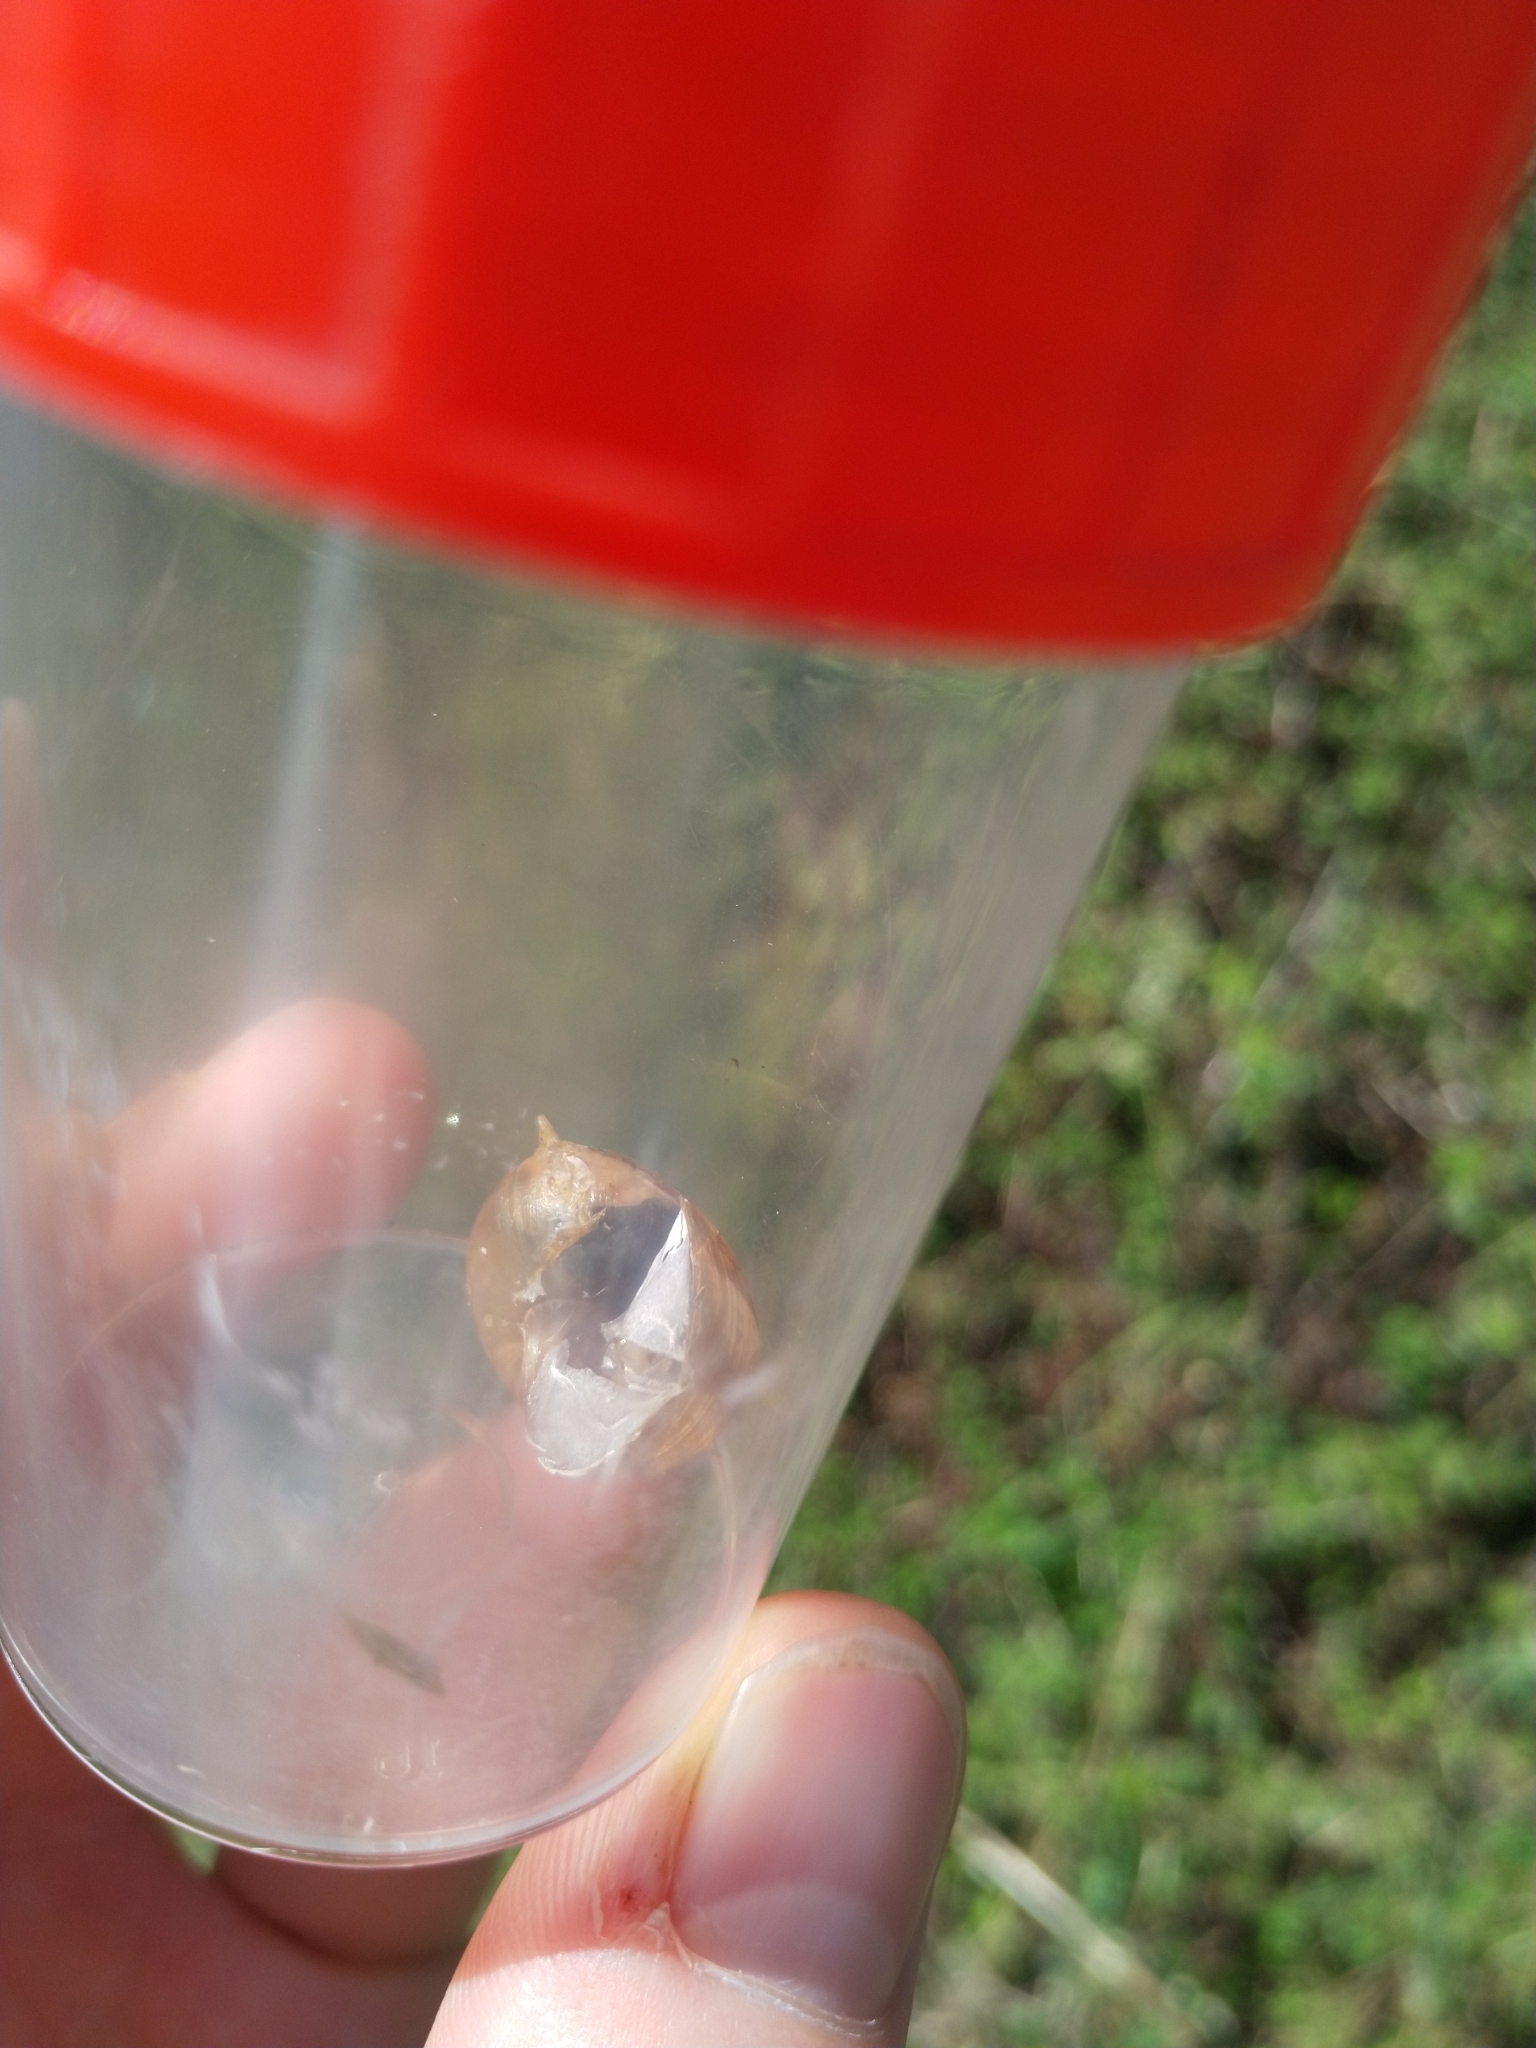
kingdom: Animalia
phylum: Mollusca
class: Gastropoda
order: Stylommatophora
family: Helicidae
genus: Arianta
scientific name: Arianta arbustorum
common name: Copse snail
